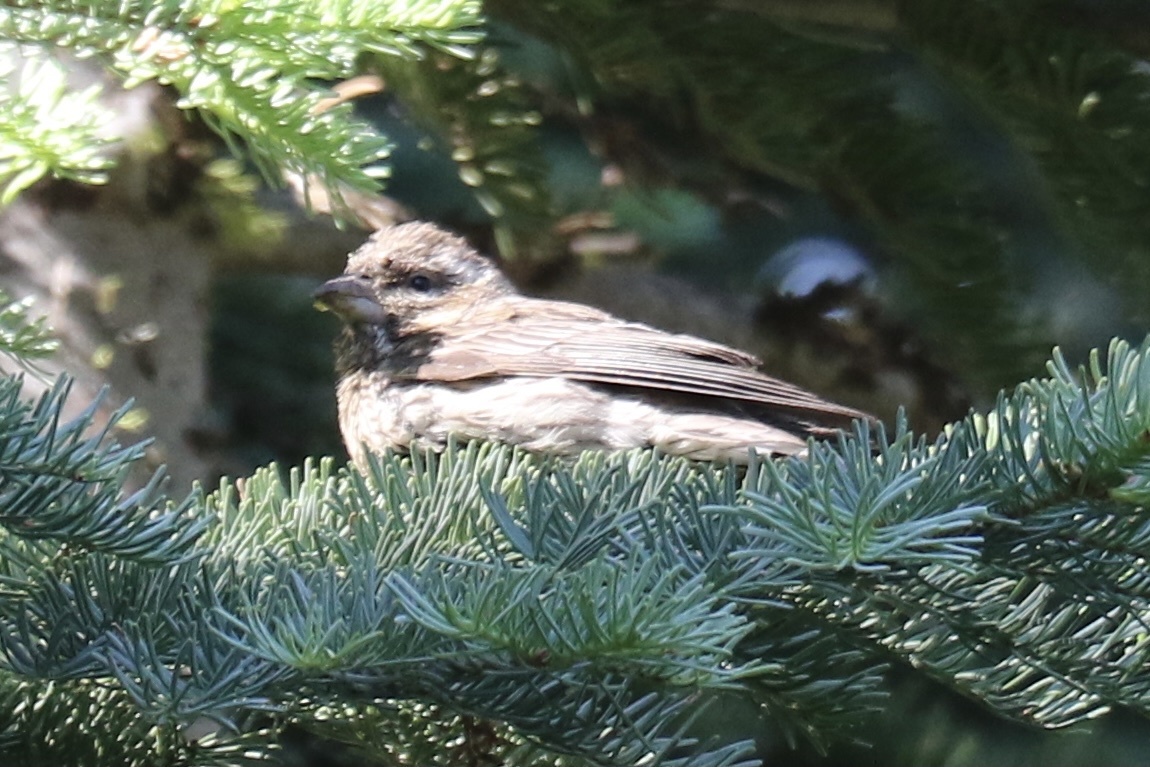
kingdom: Animalia
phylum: Chordata
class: Aves
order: Passeriformes
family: Fringillidae
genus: Haemorhous
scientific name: Haemorhous cassinii
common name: Cassin's finch
